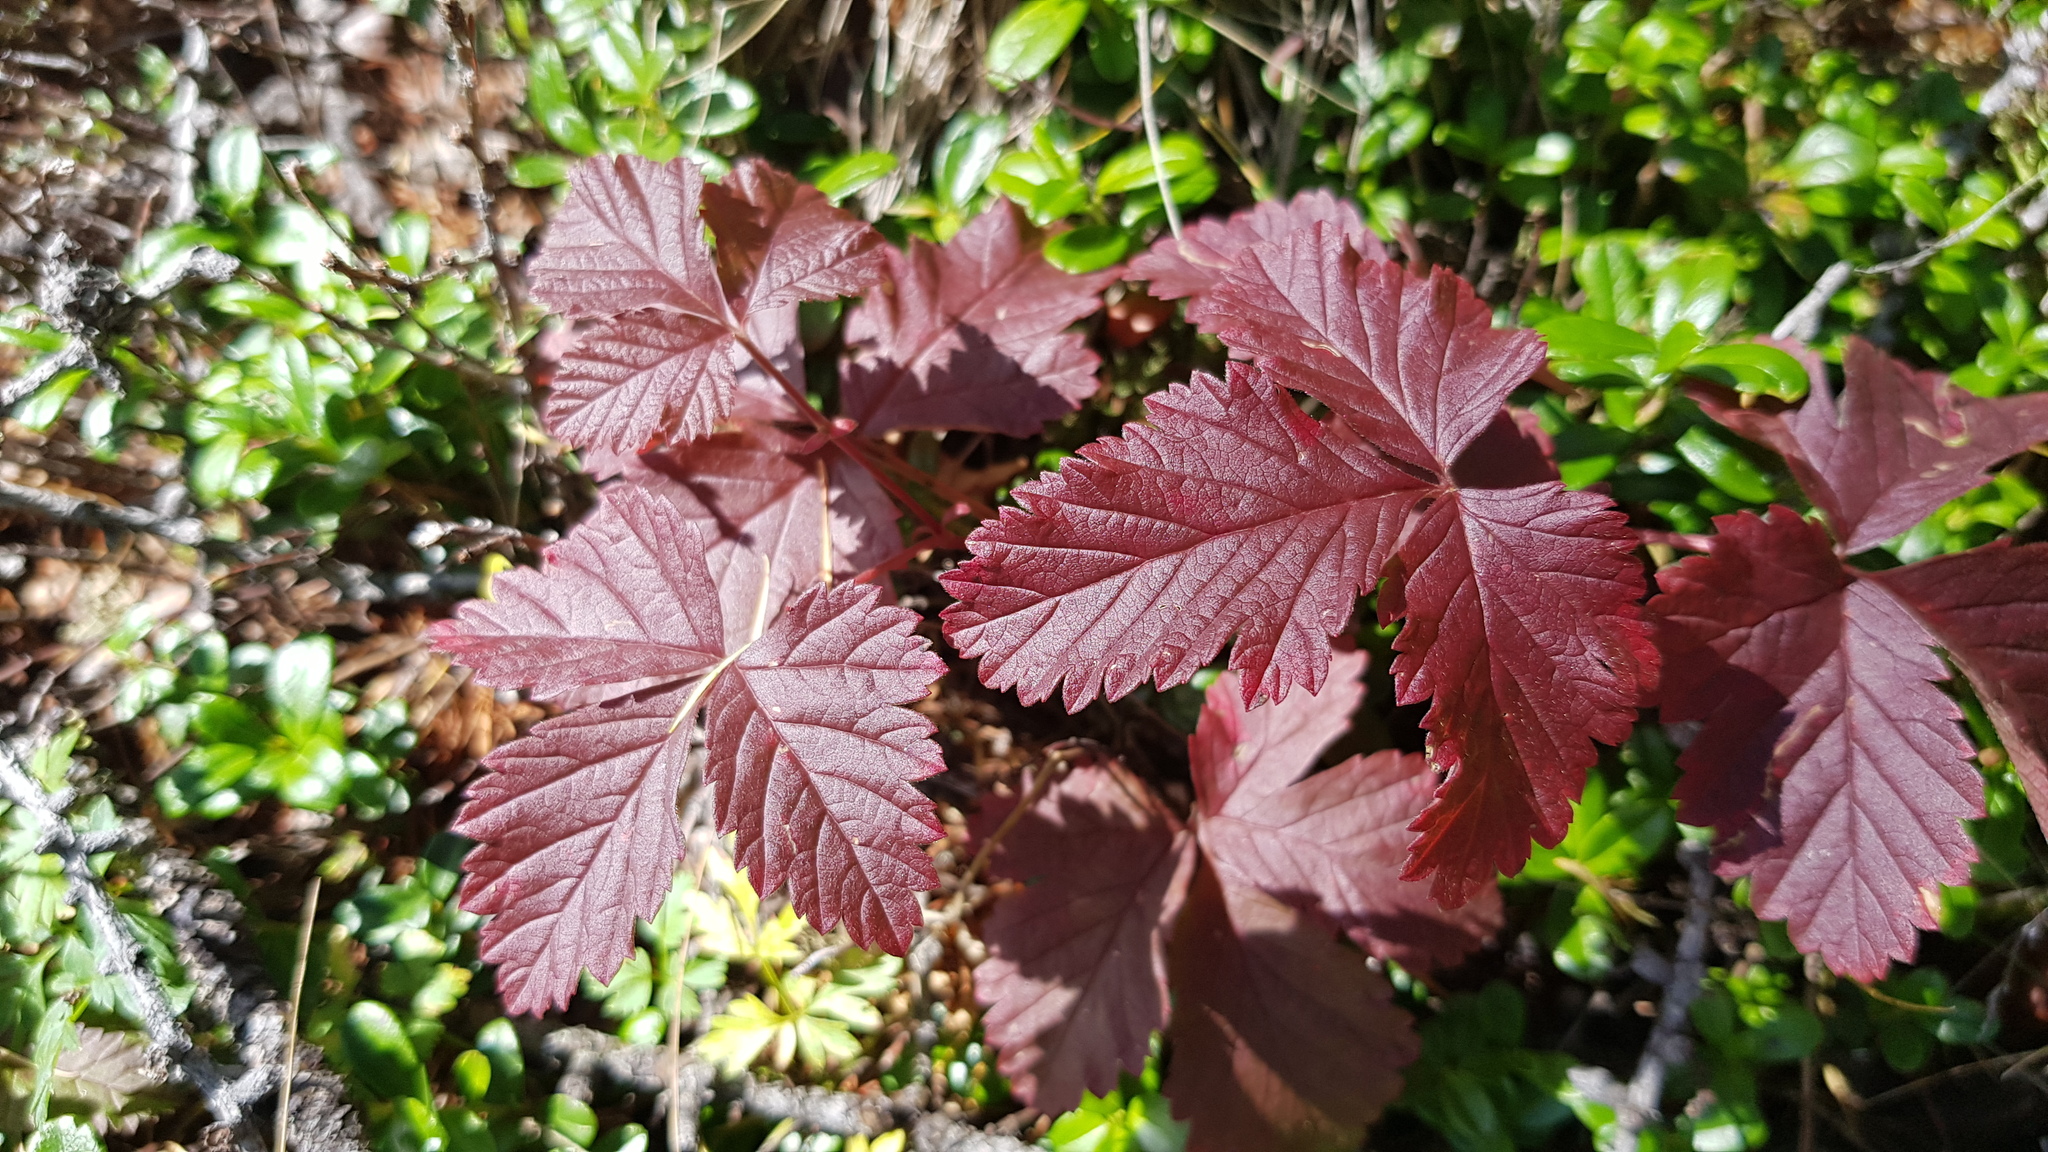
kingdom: Plantae
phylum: Tracheophyta
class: Magnoliopsida
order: Rosales
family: Rosaceae
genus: Rubus
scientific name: Rubus arcticus
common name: Arctic bramble
